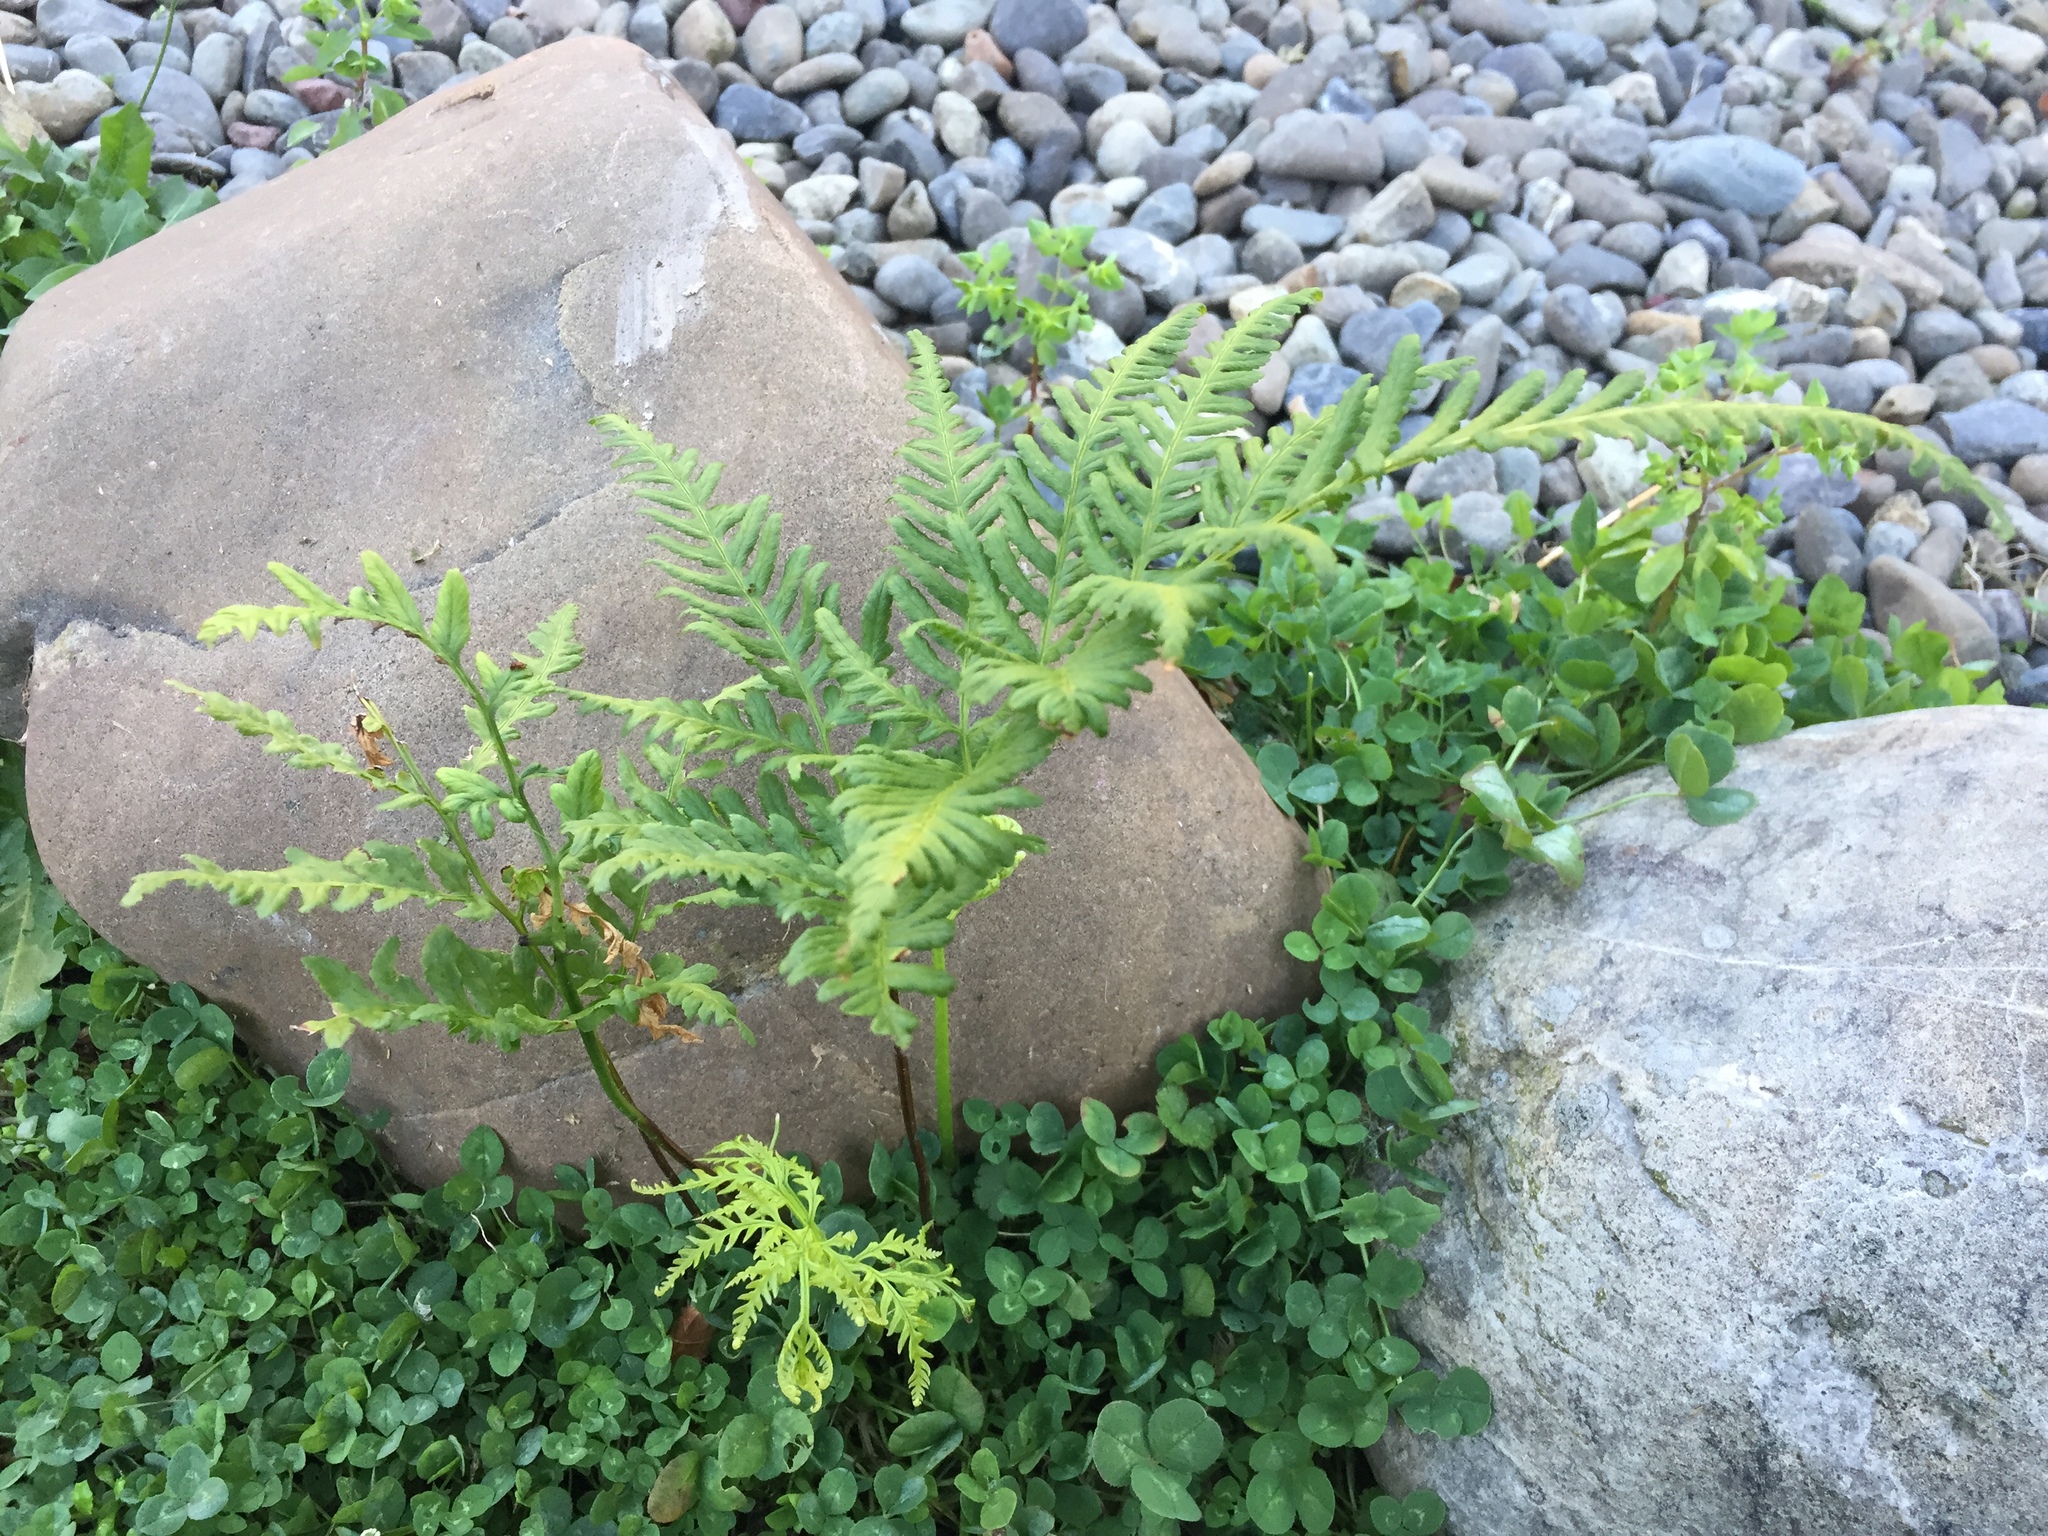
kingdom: Plantae
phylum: Tracheophyta
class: Polypodiopsida
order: Polypodiales
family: Pteridaceae
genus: Pteris
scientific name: Pteris tremula
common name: Australian brake
